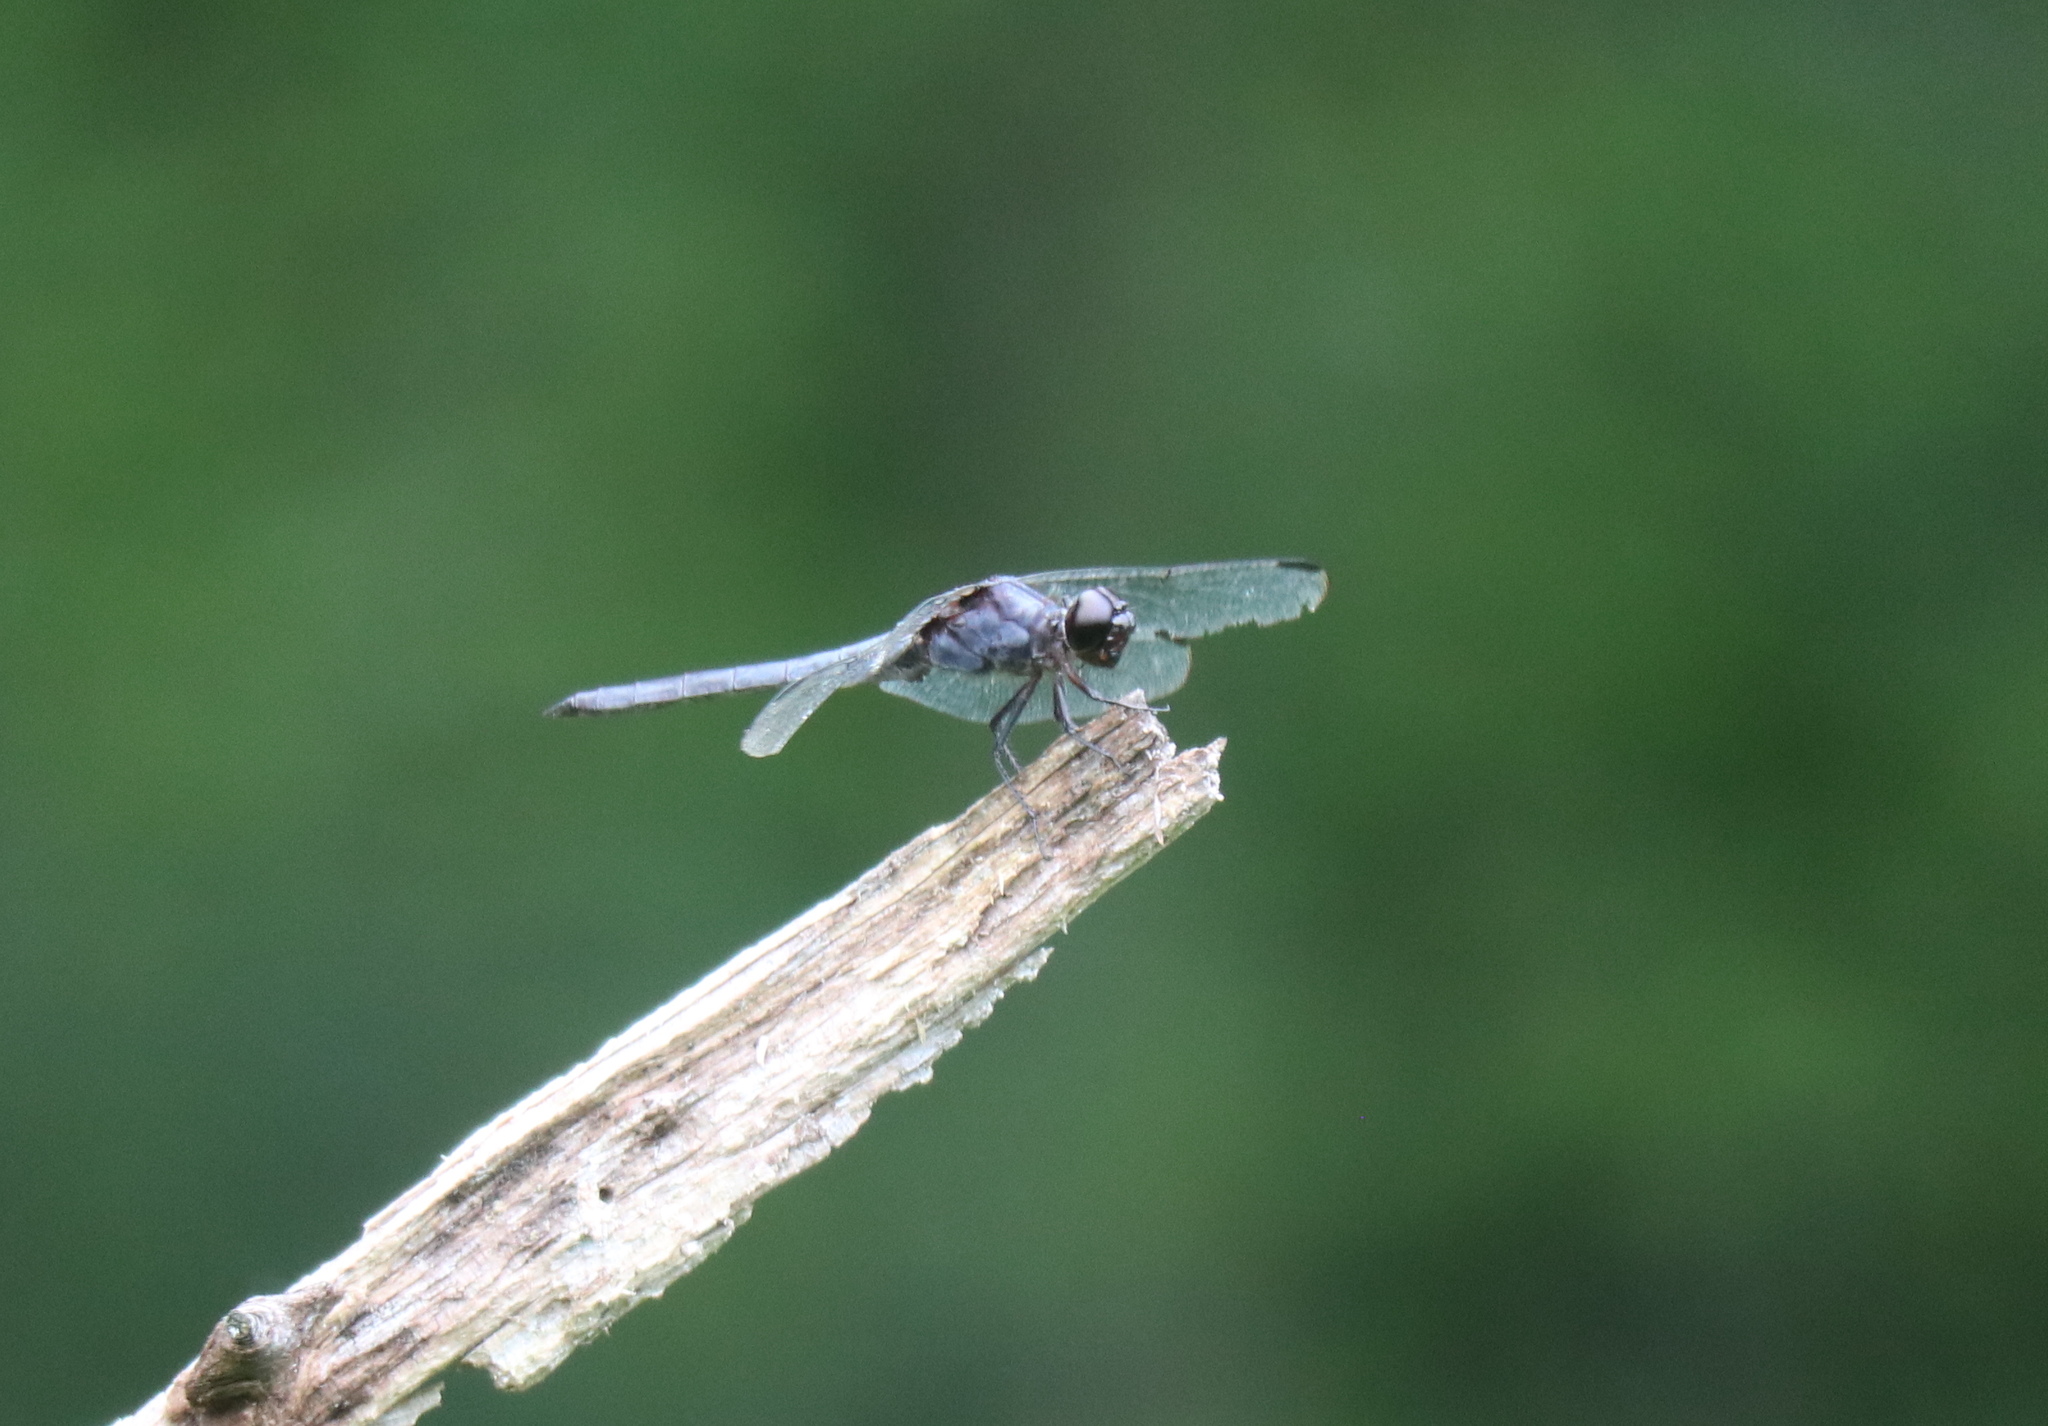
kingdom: Animalia
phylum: Arthropoda
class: Insecta
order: Odonata
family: Libellulidae
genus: Libellula
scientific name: Libellula incesta
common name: Slaty skimmer
